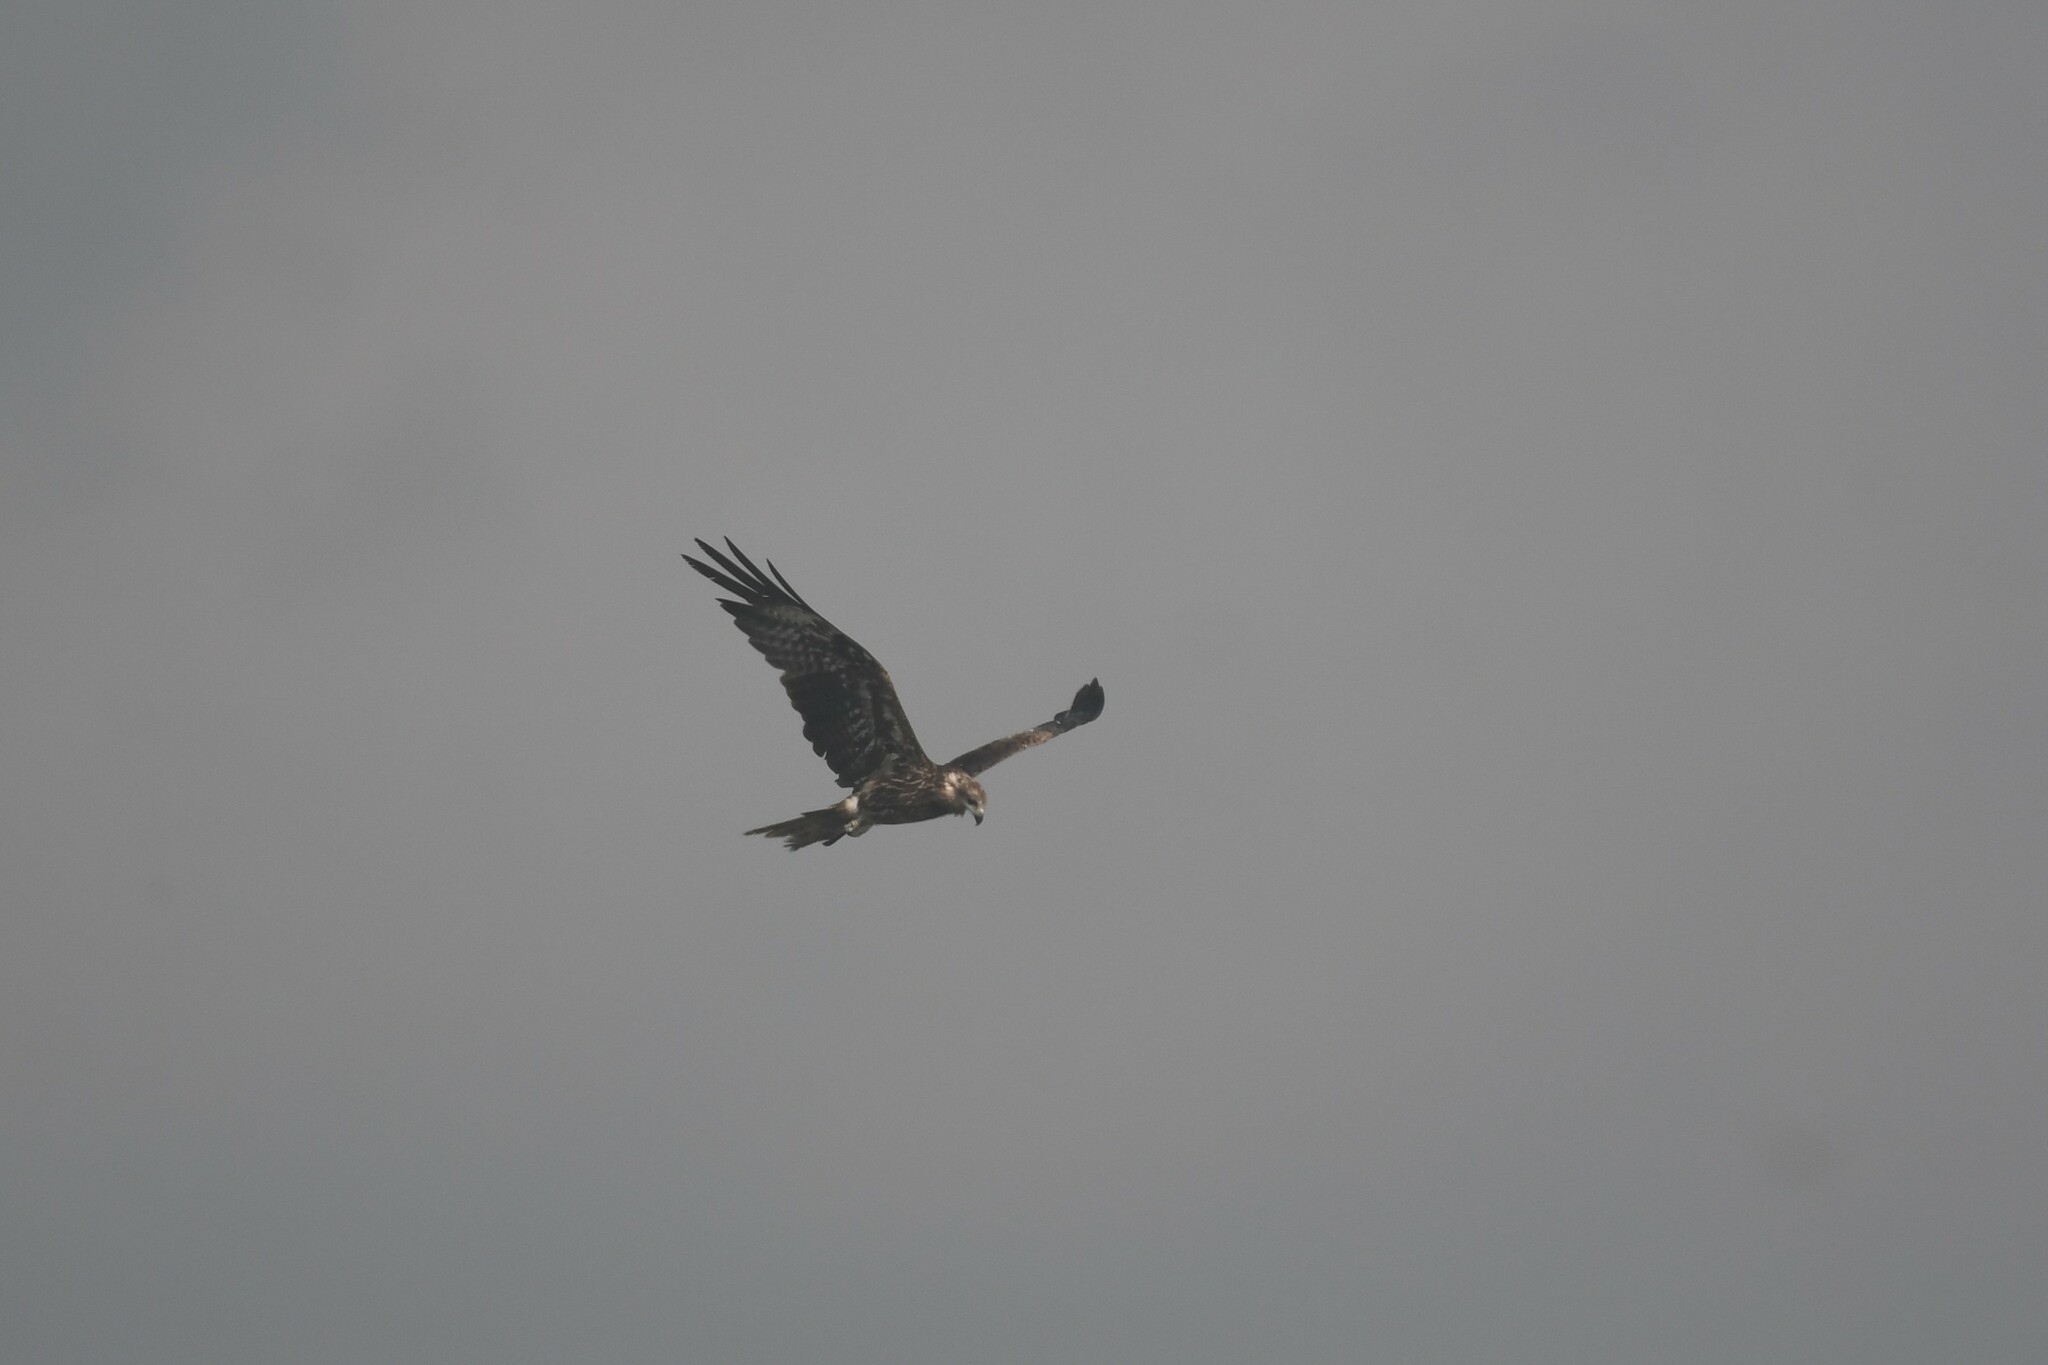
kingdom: Animalia
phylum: Chordata
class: Aves
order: Accipitriformes
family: Accipitridae
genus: Milvus
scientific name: Milvus migrans
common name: Black kite
